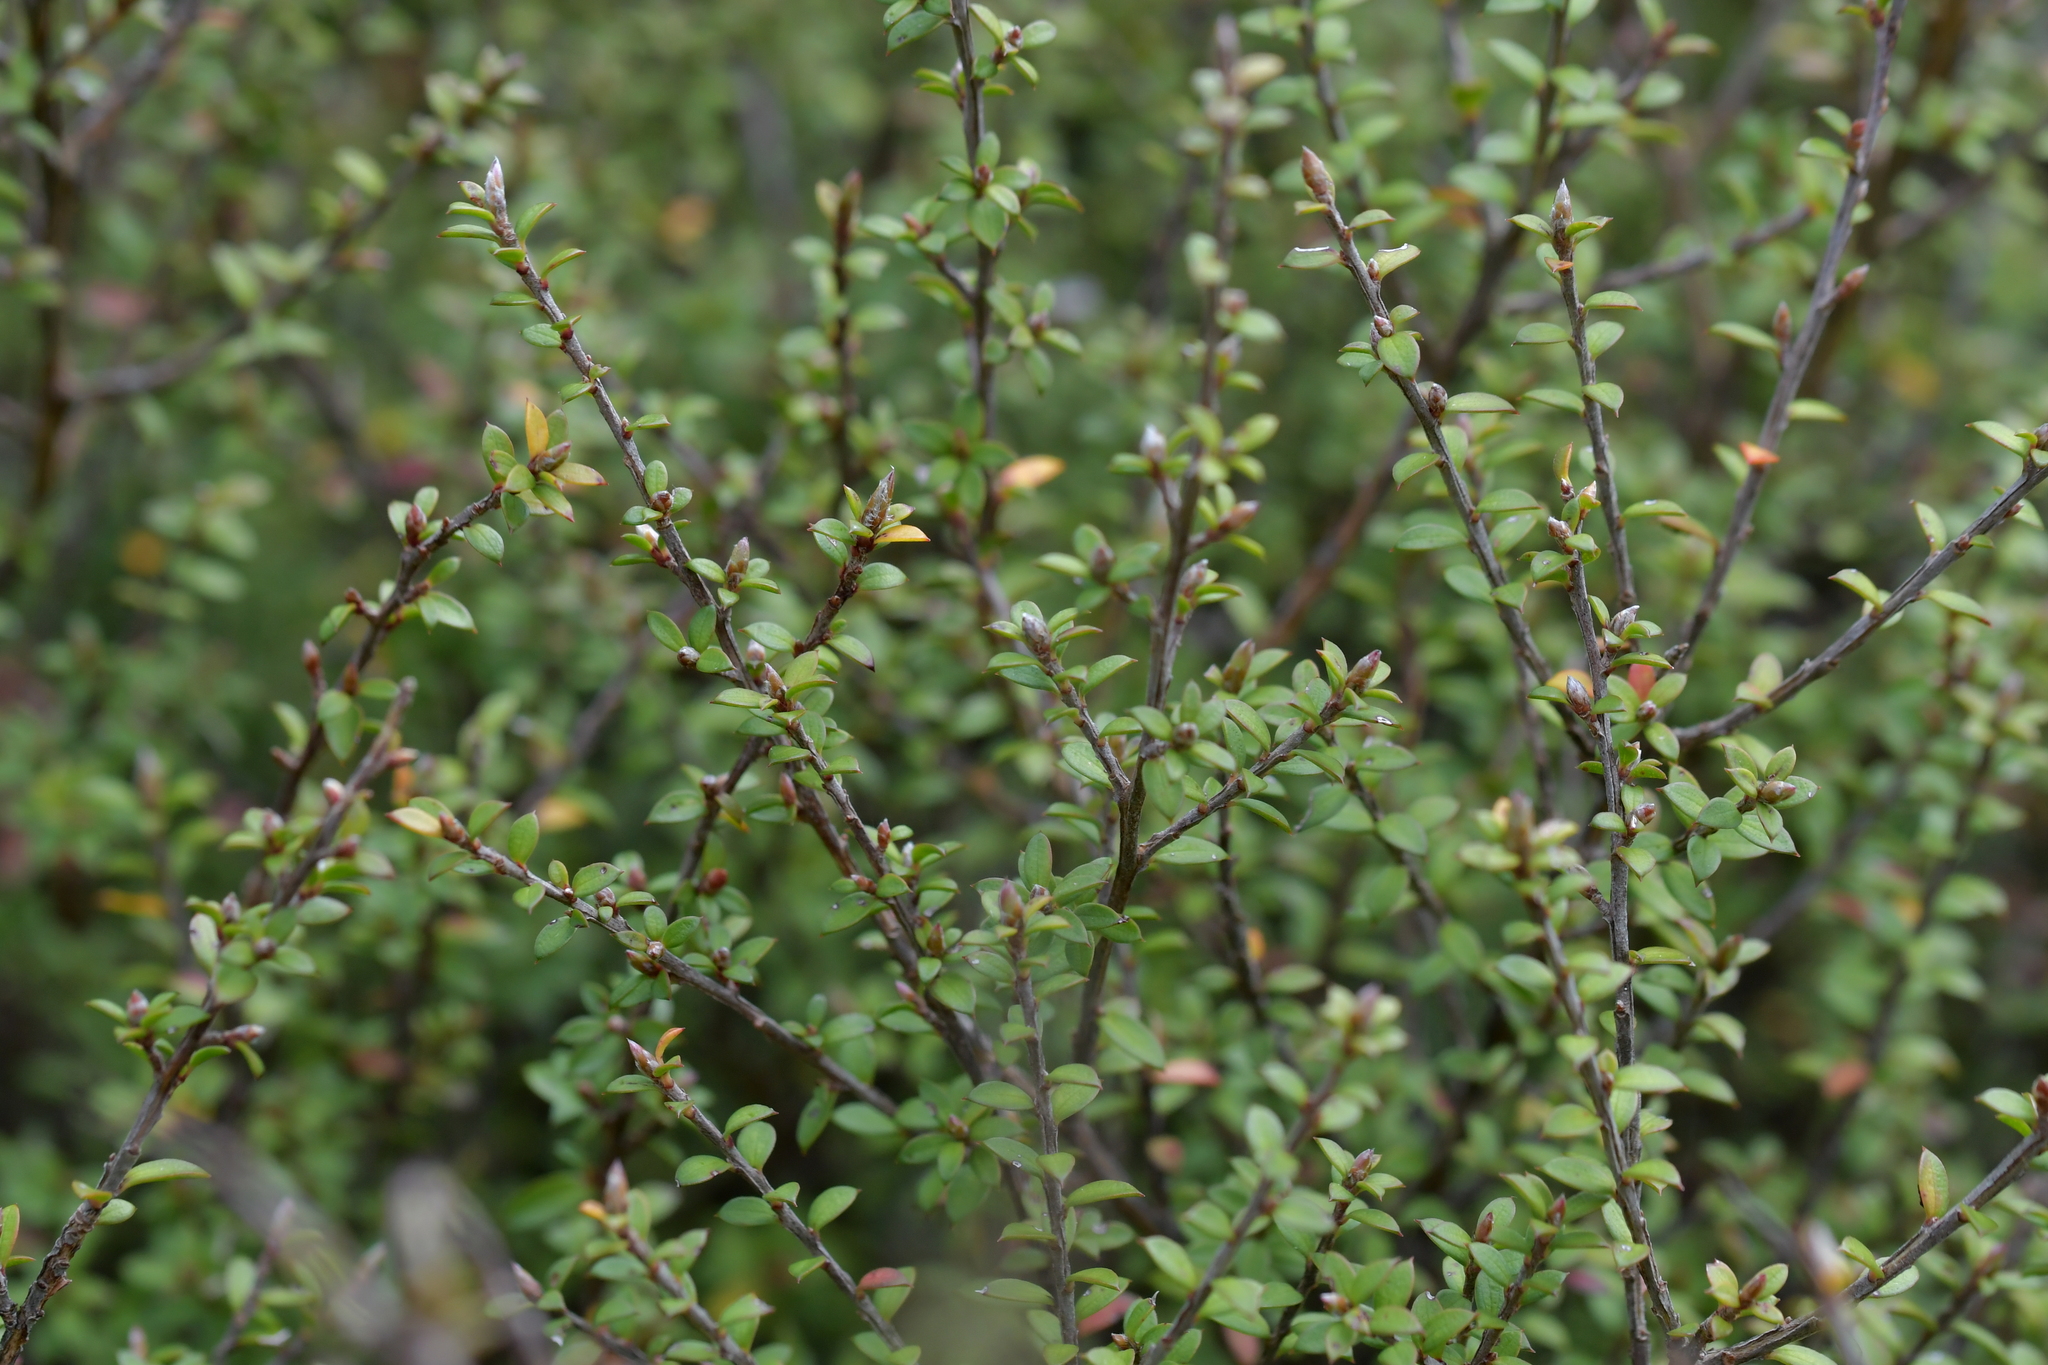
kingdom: Plantae
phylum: Tracheophyta
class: Magnoliopsida
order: Myrtales
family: Myrtaceae
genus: Leptospermum
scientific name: Leptospermum scoparium
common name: Broom tea-tree
